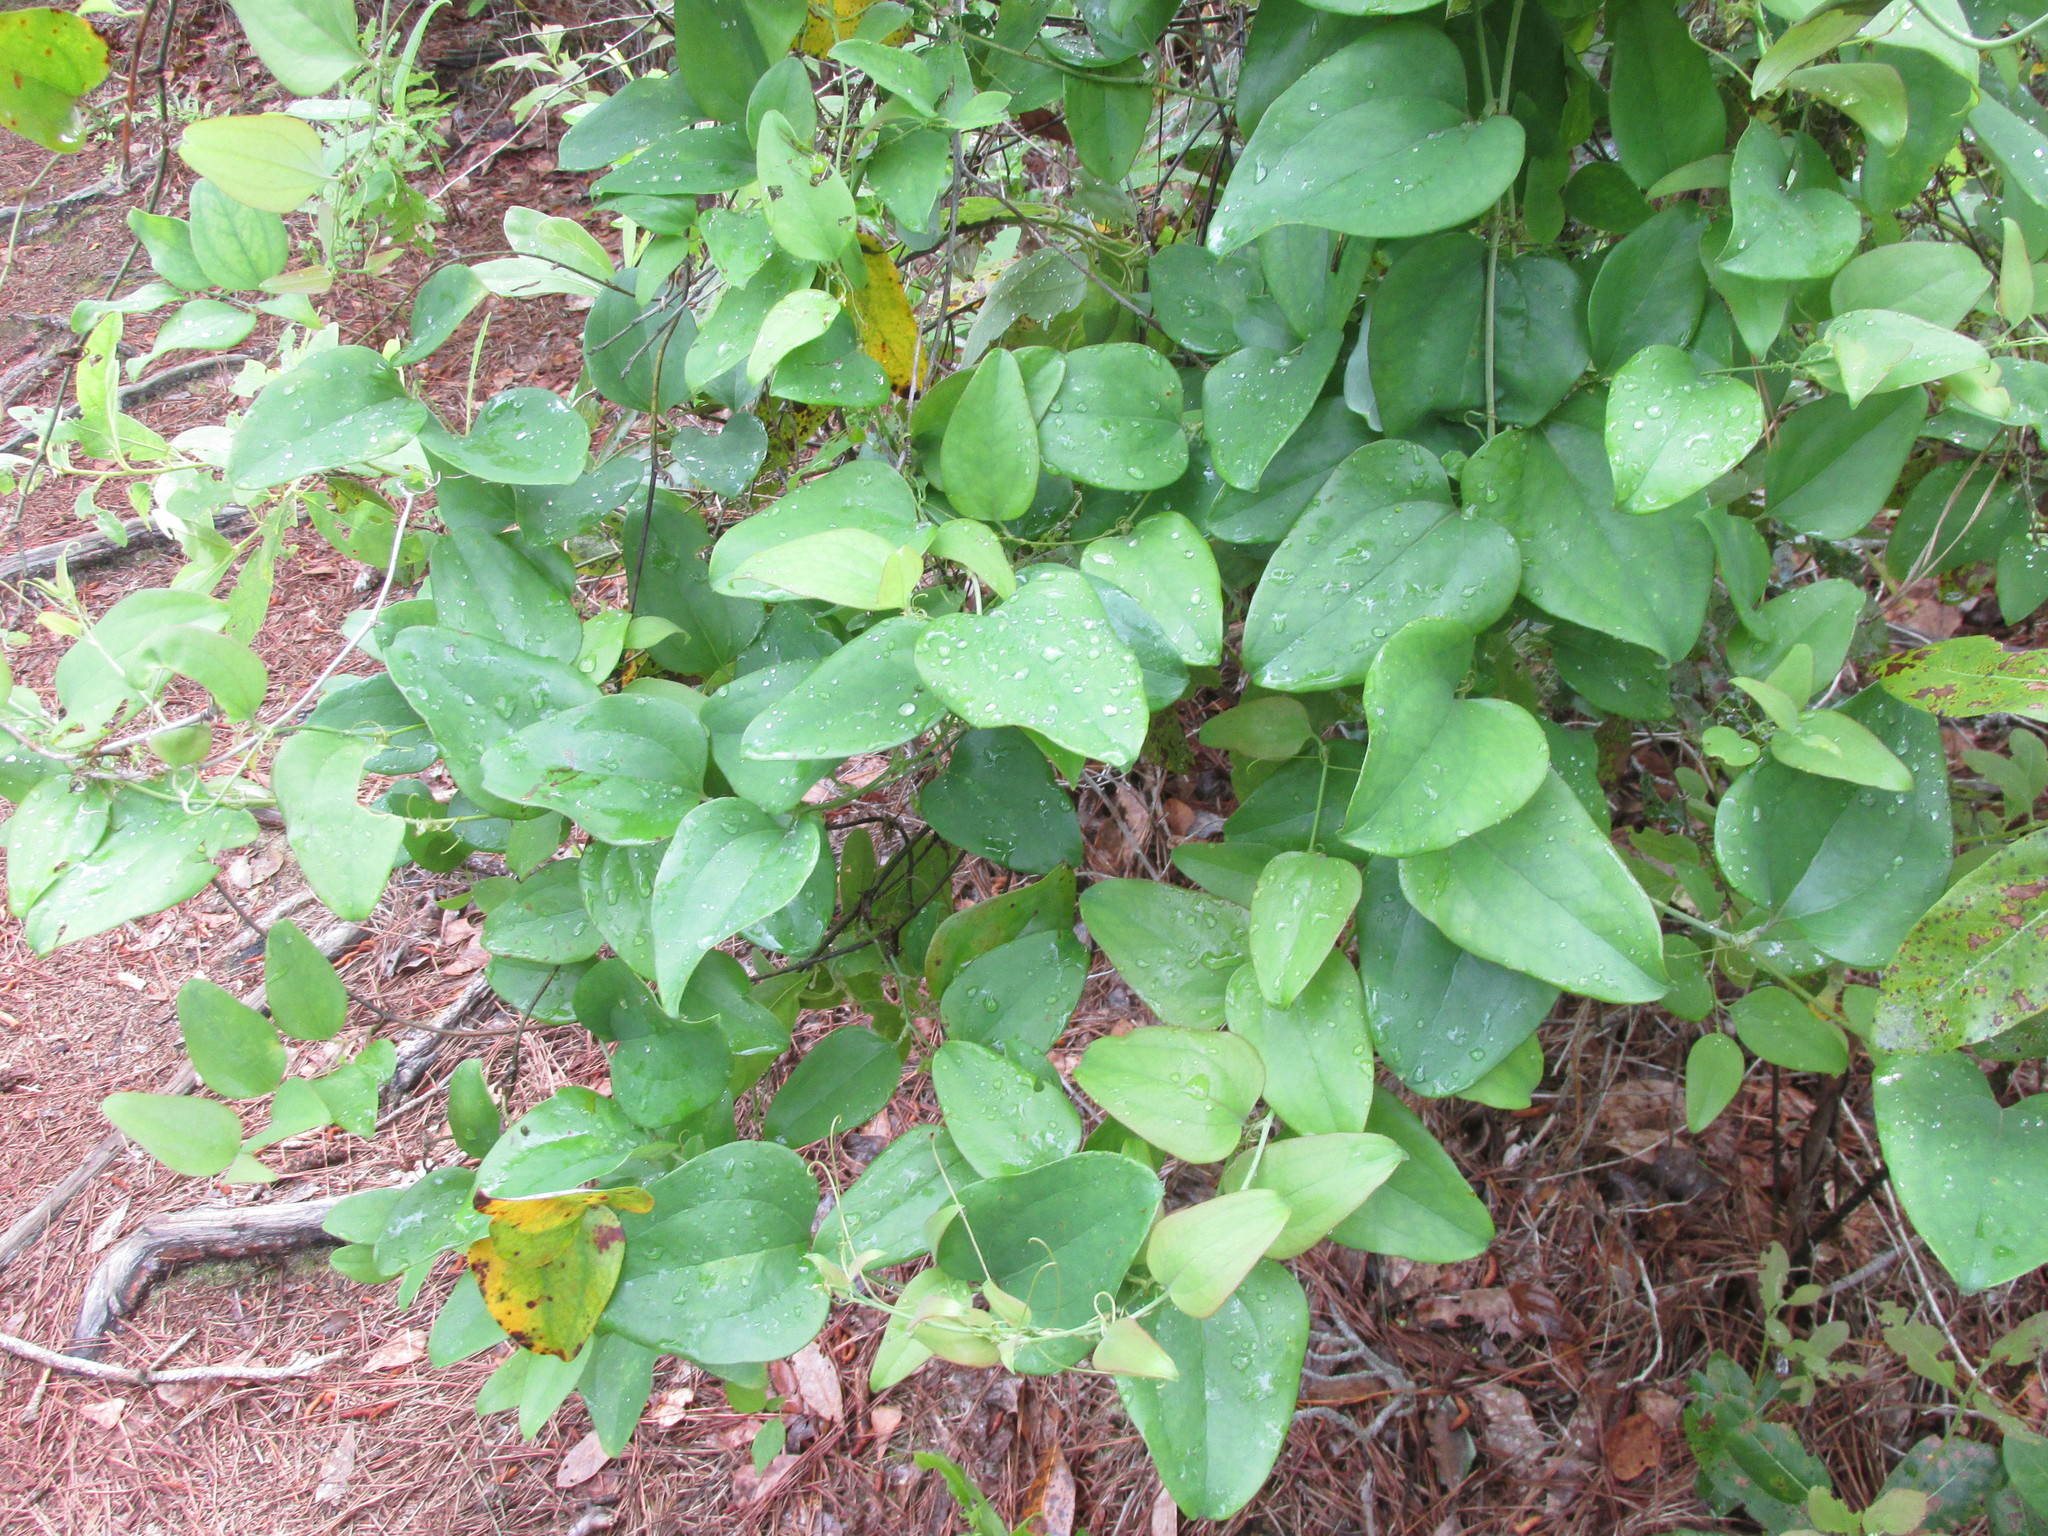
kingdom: Plantae
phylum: Tracheophyta
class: Liliopsida
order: Liliales
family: Smilacaceae
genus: Smilax
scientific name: Smilax glauca
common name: Cat greenbrier
